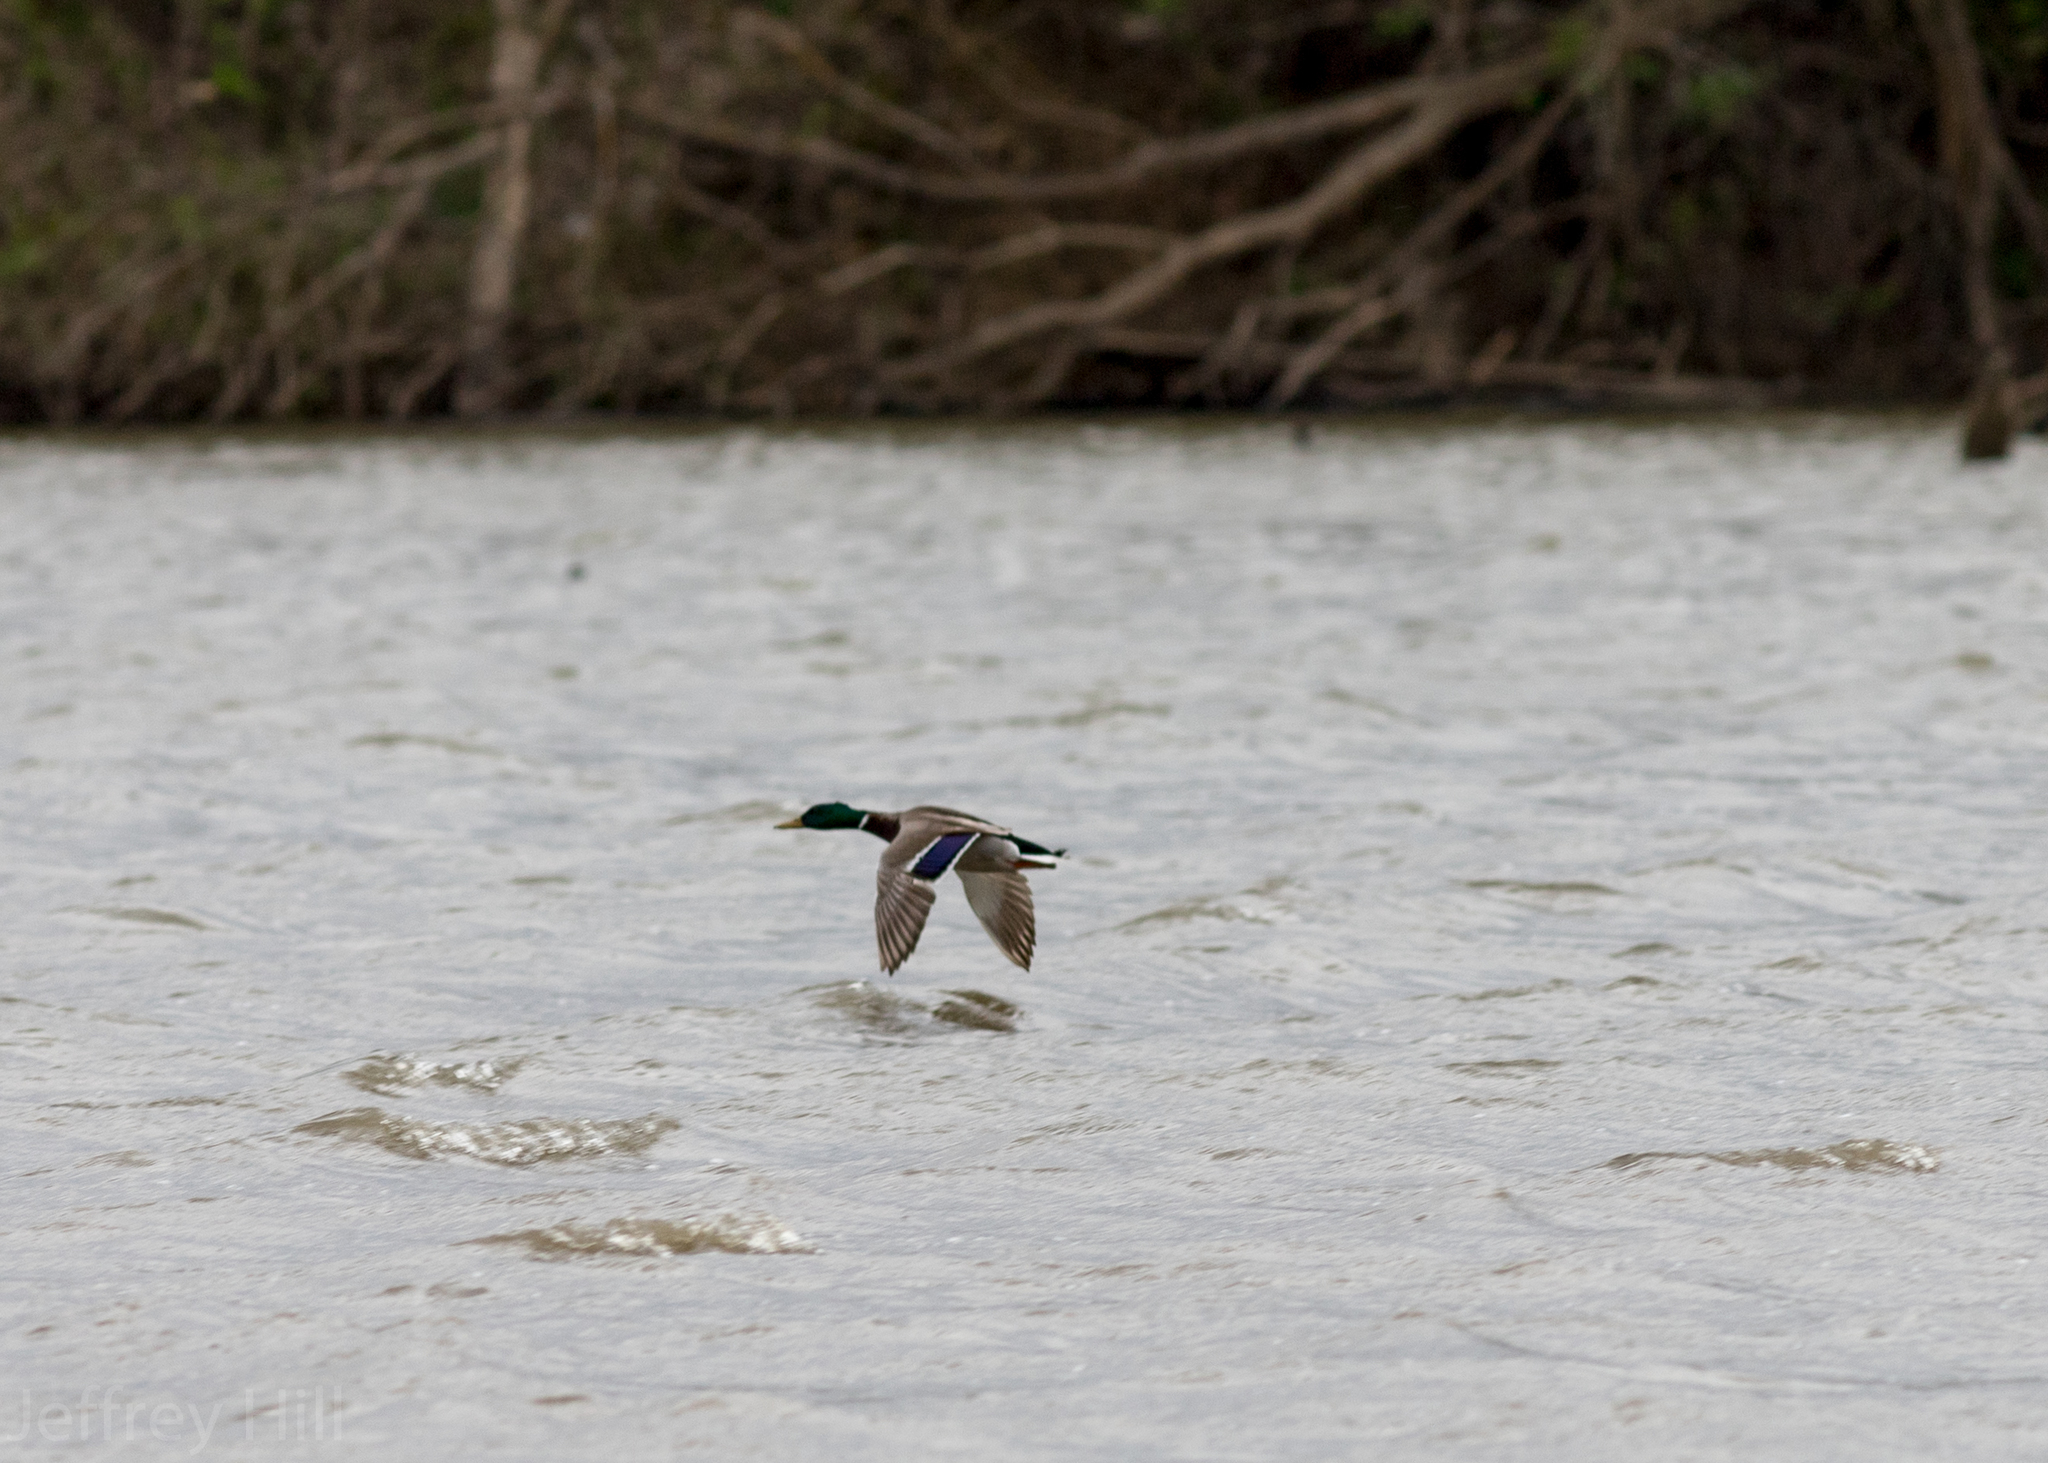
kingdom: Animalia
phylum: Chordata
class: Aves
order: Anseriformes
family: Anatidae
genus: Anas
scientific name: Anas platyrhynchos
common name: Mallard
